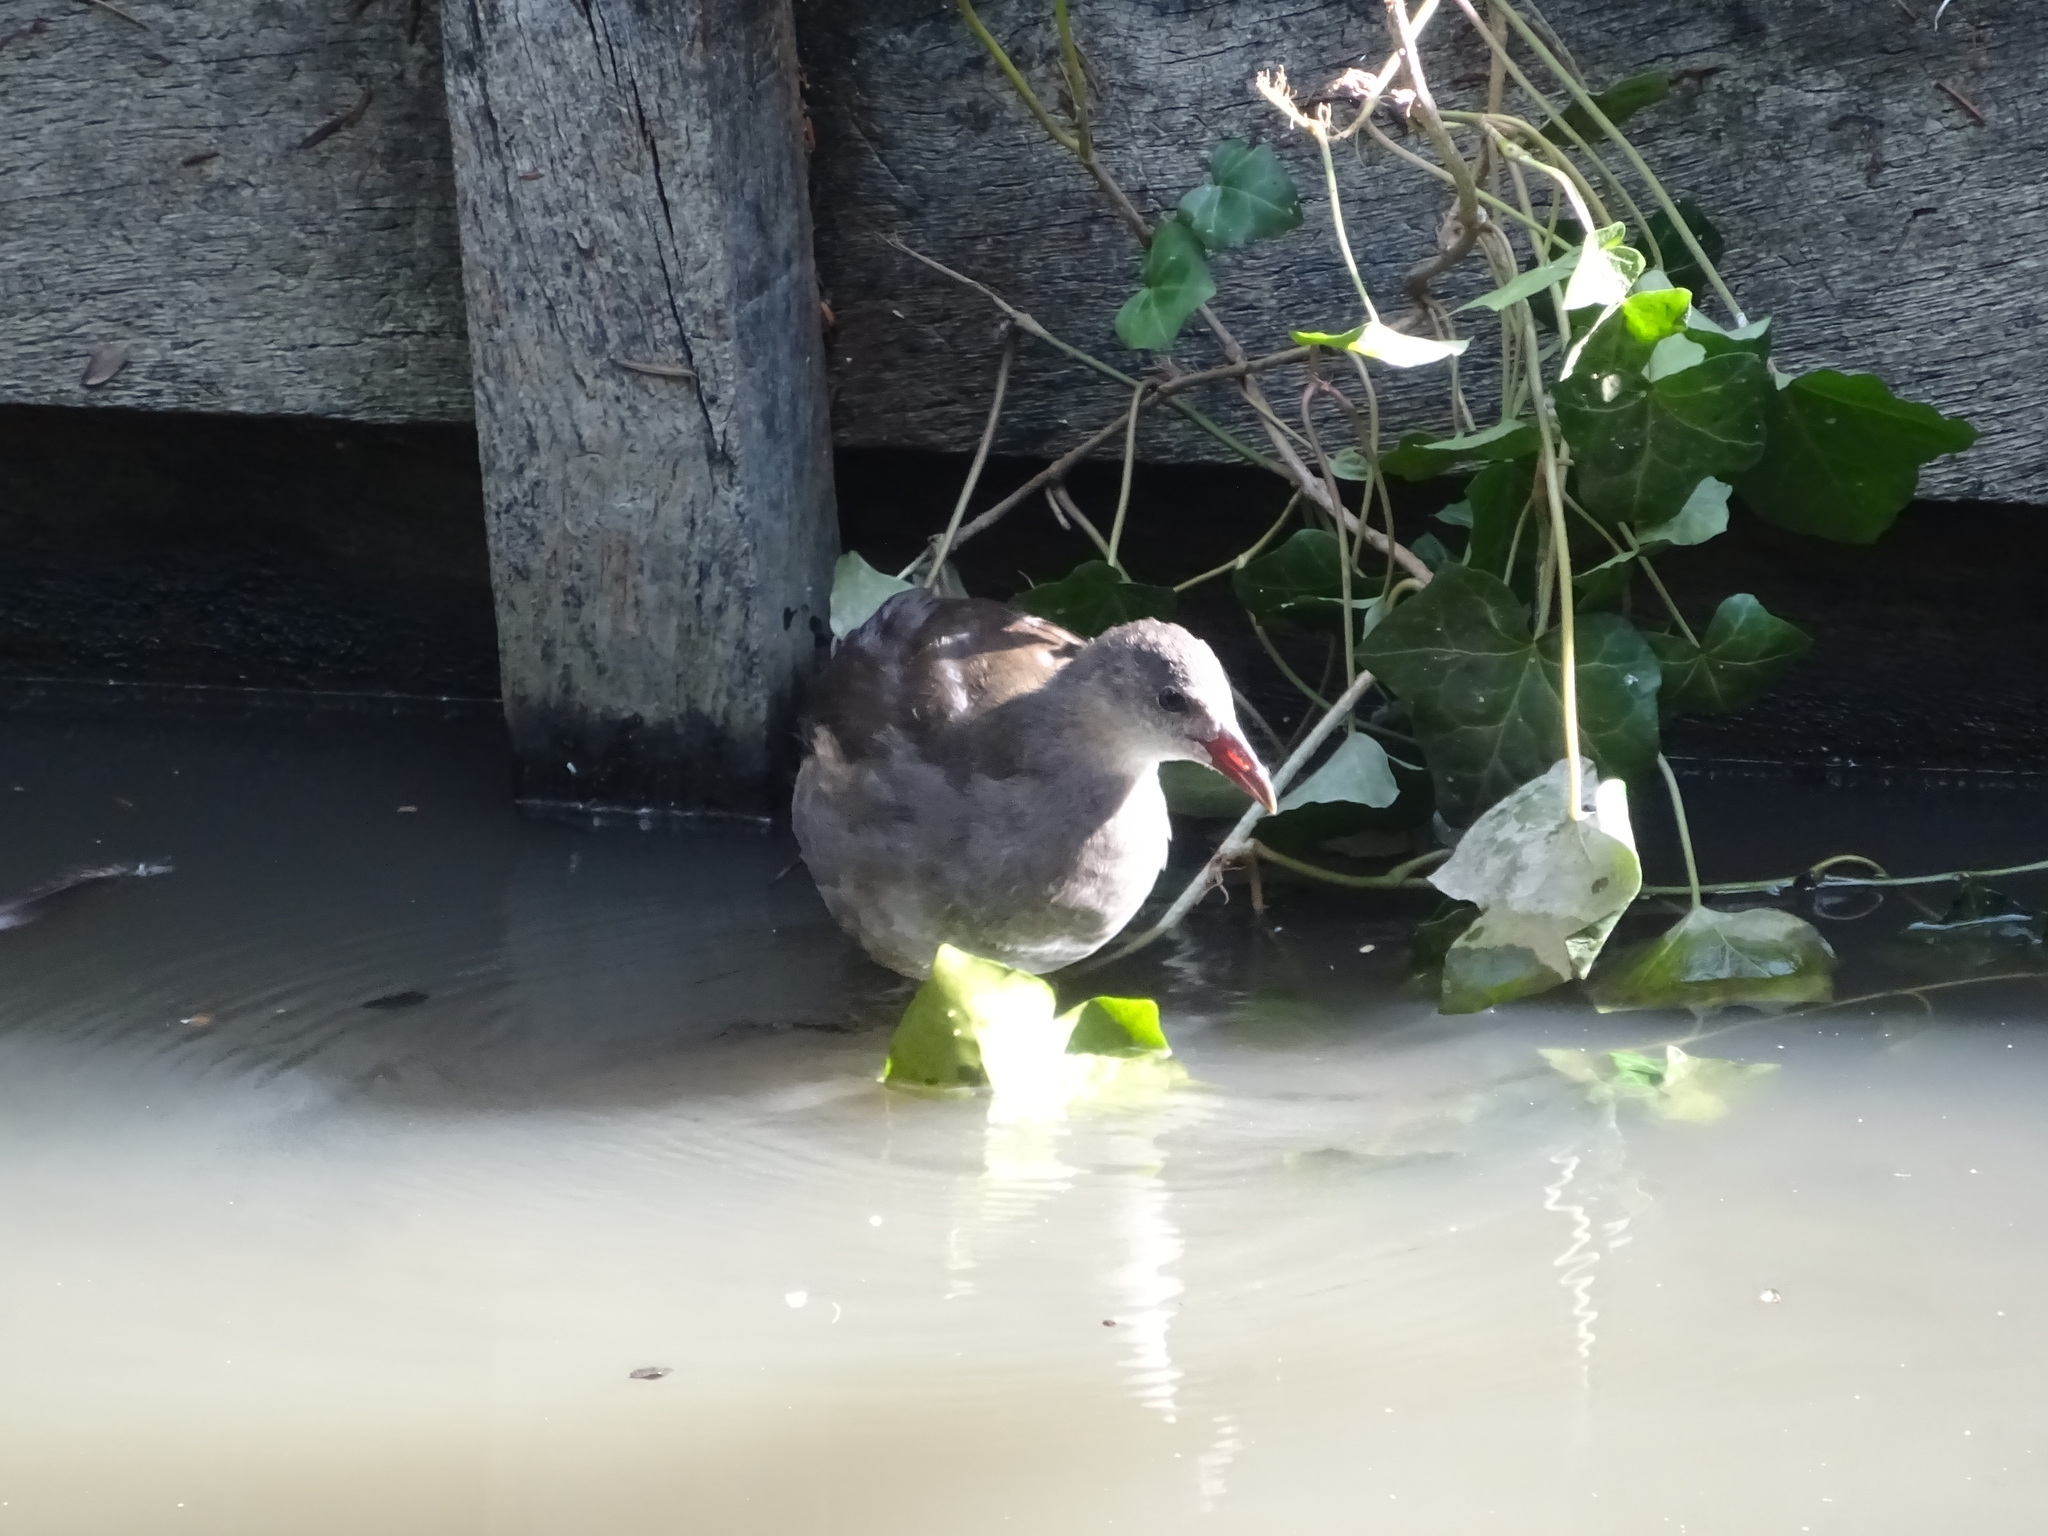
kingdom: Animalia
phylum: Chordata
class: Aves
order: Gruiformes
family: Rallidae
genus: Gallinula
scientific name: Gallinula chloropus
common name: Common moorhen
